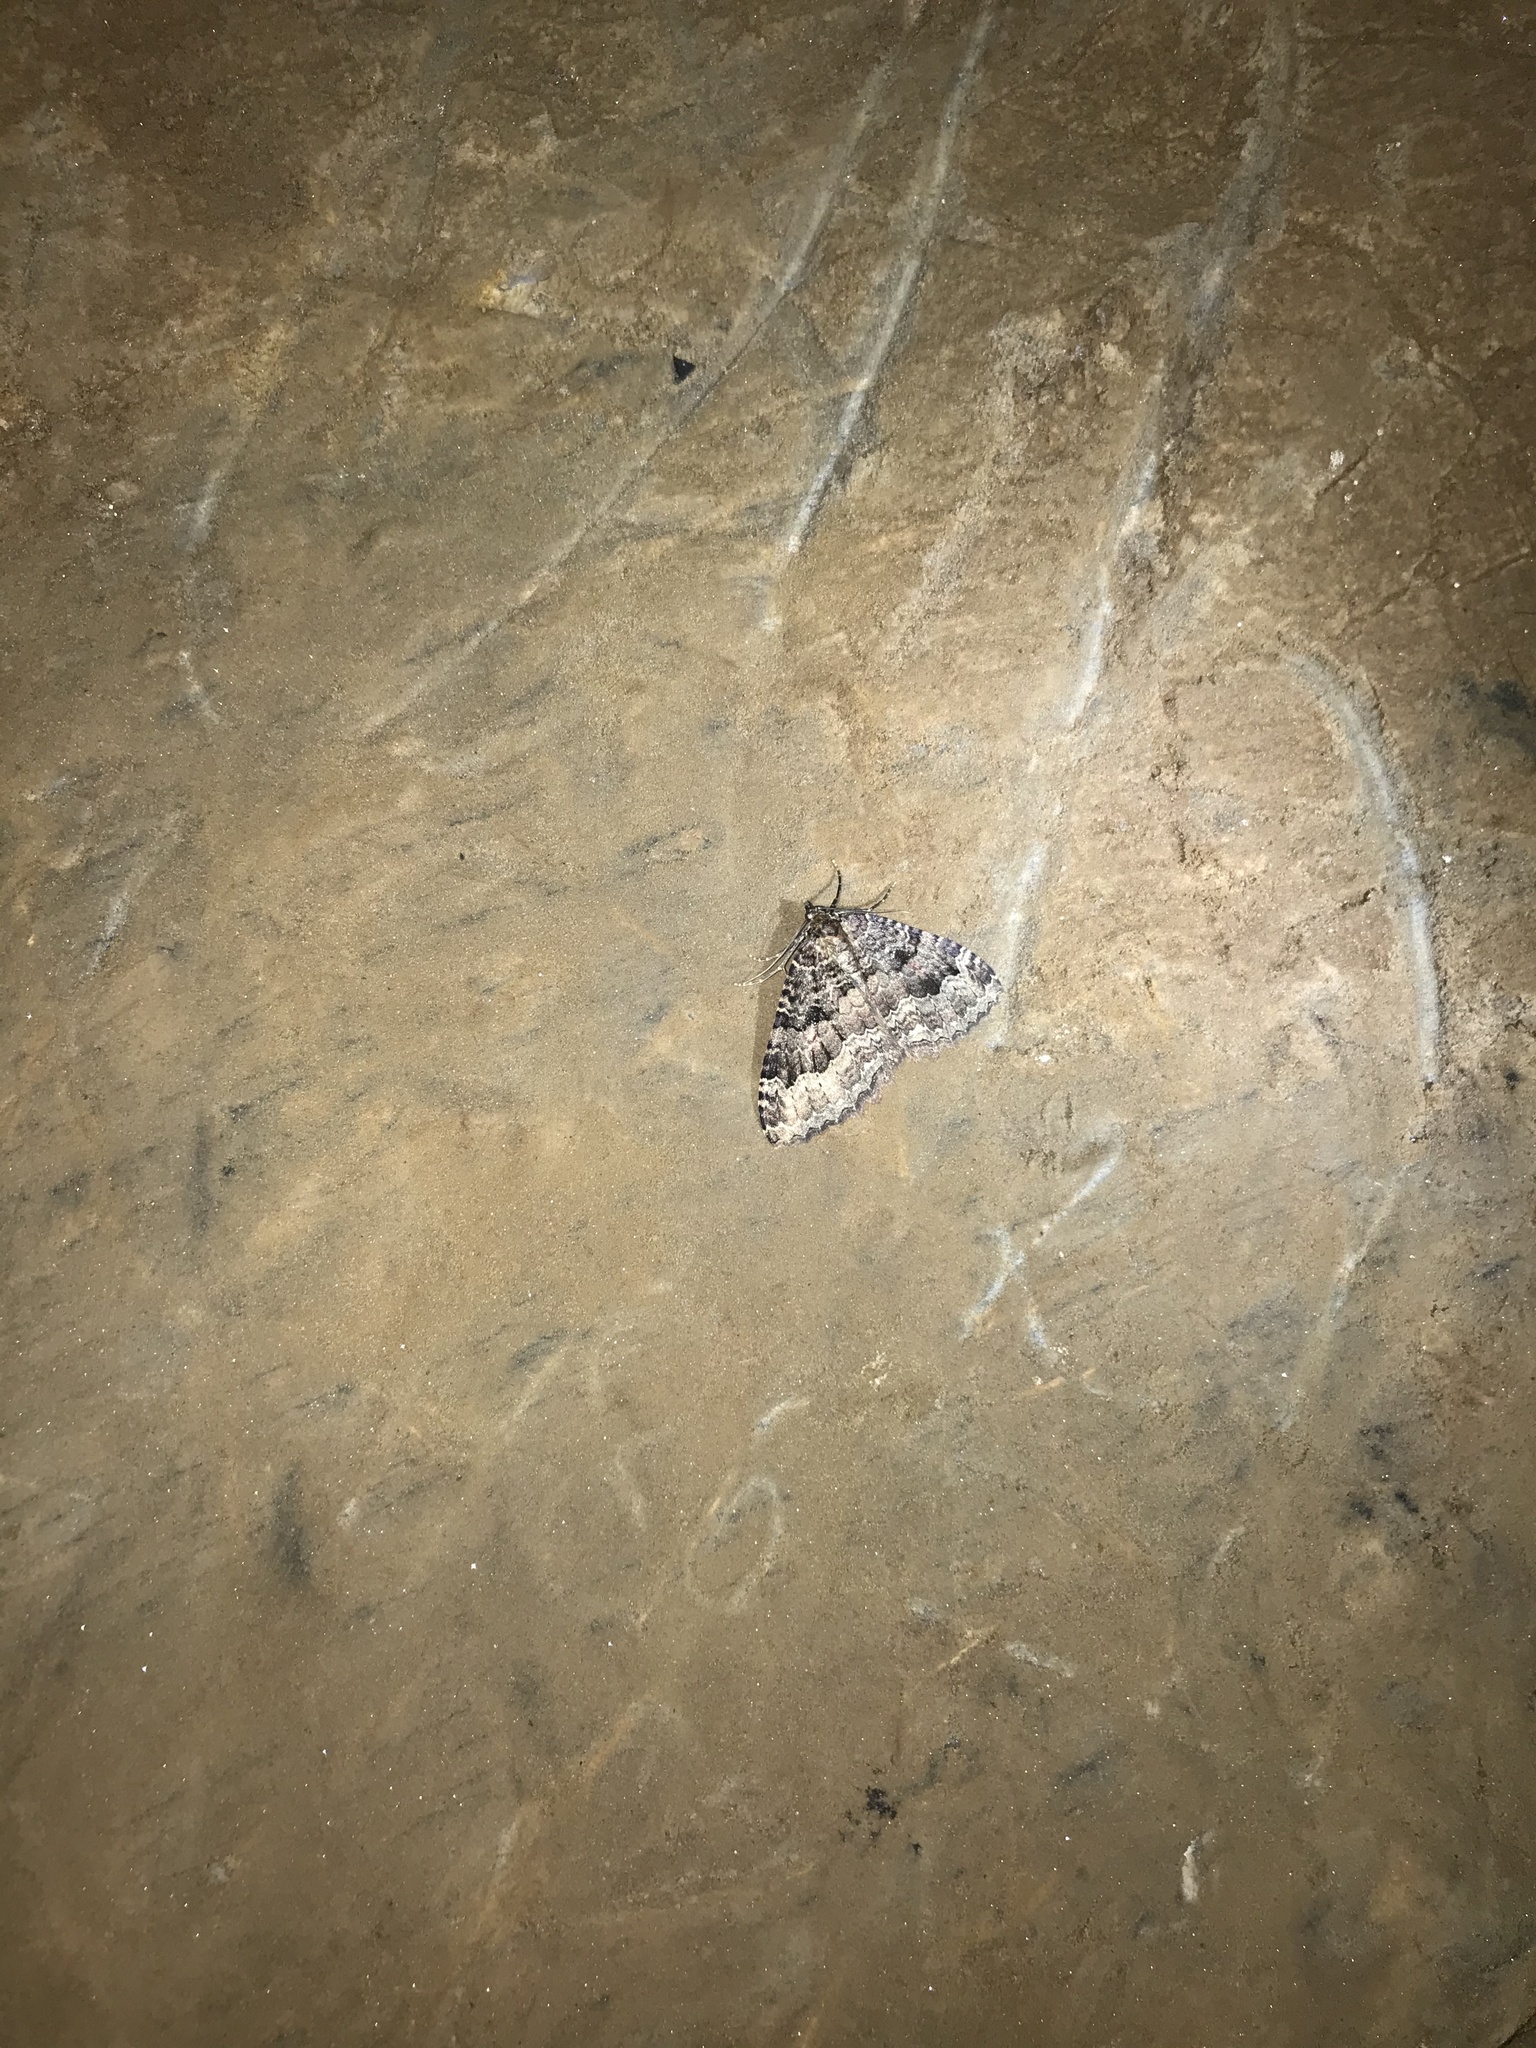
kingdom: Animalia
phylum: Arthropoda
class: Insecta
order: Lepidoptera
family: Geometridae
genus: Triphosa
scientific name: Triphosa dubitata
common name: Tissue
